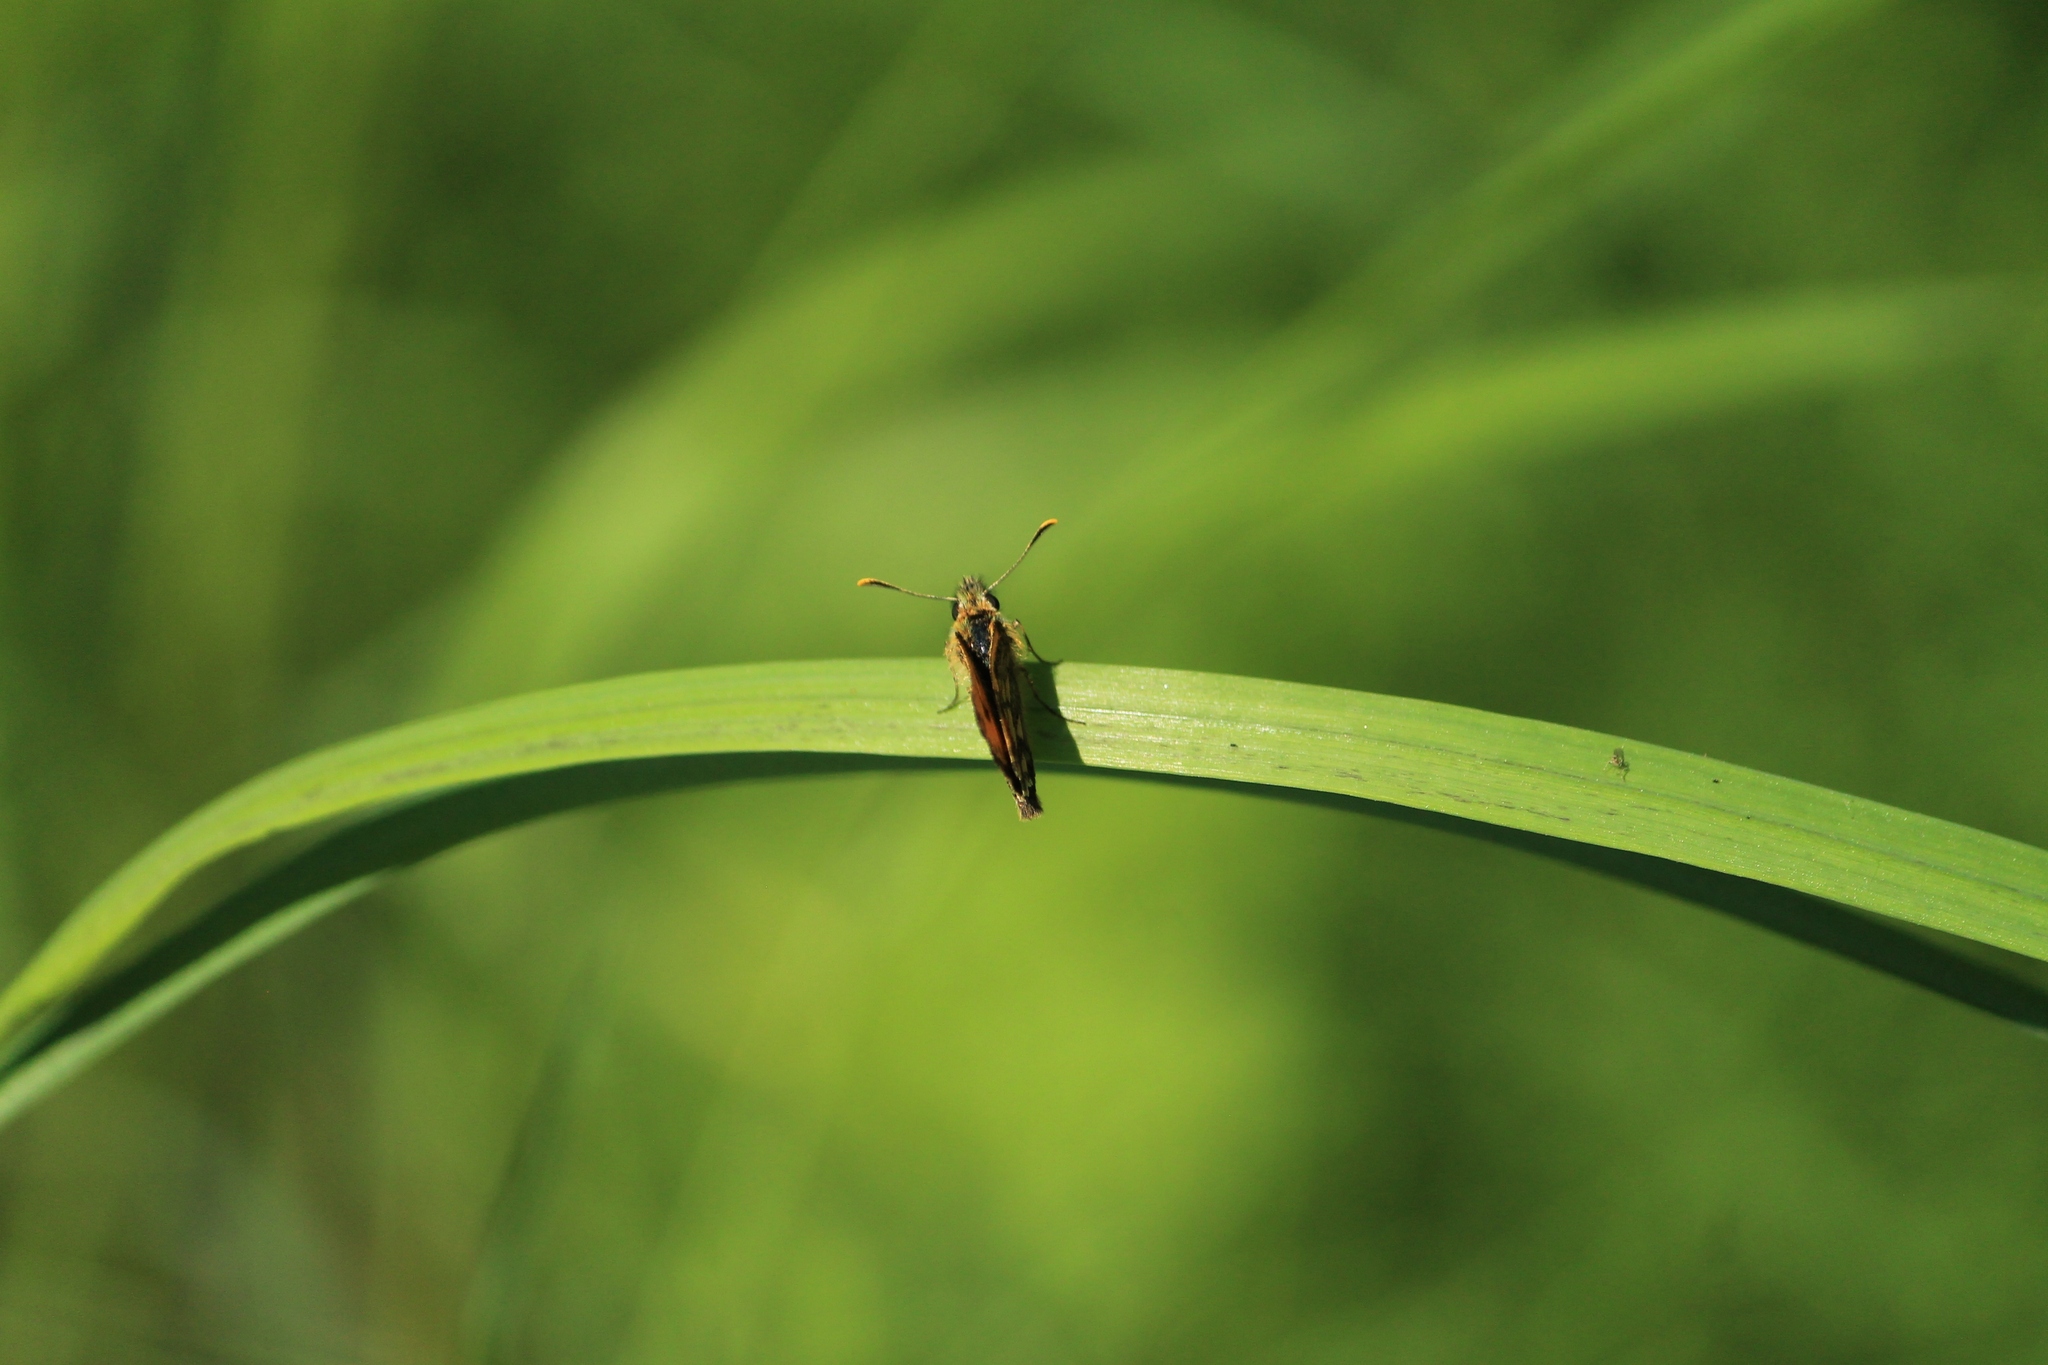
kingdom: Animalia
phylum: Arthropoda
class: Insecta
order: Lepidoptera
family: Hesperiidae
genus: Carterocephalus
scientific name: Carterocephalus silvicola
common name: Northern chequered skipper
